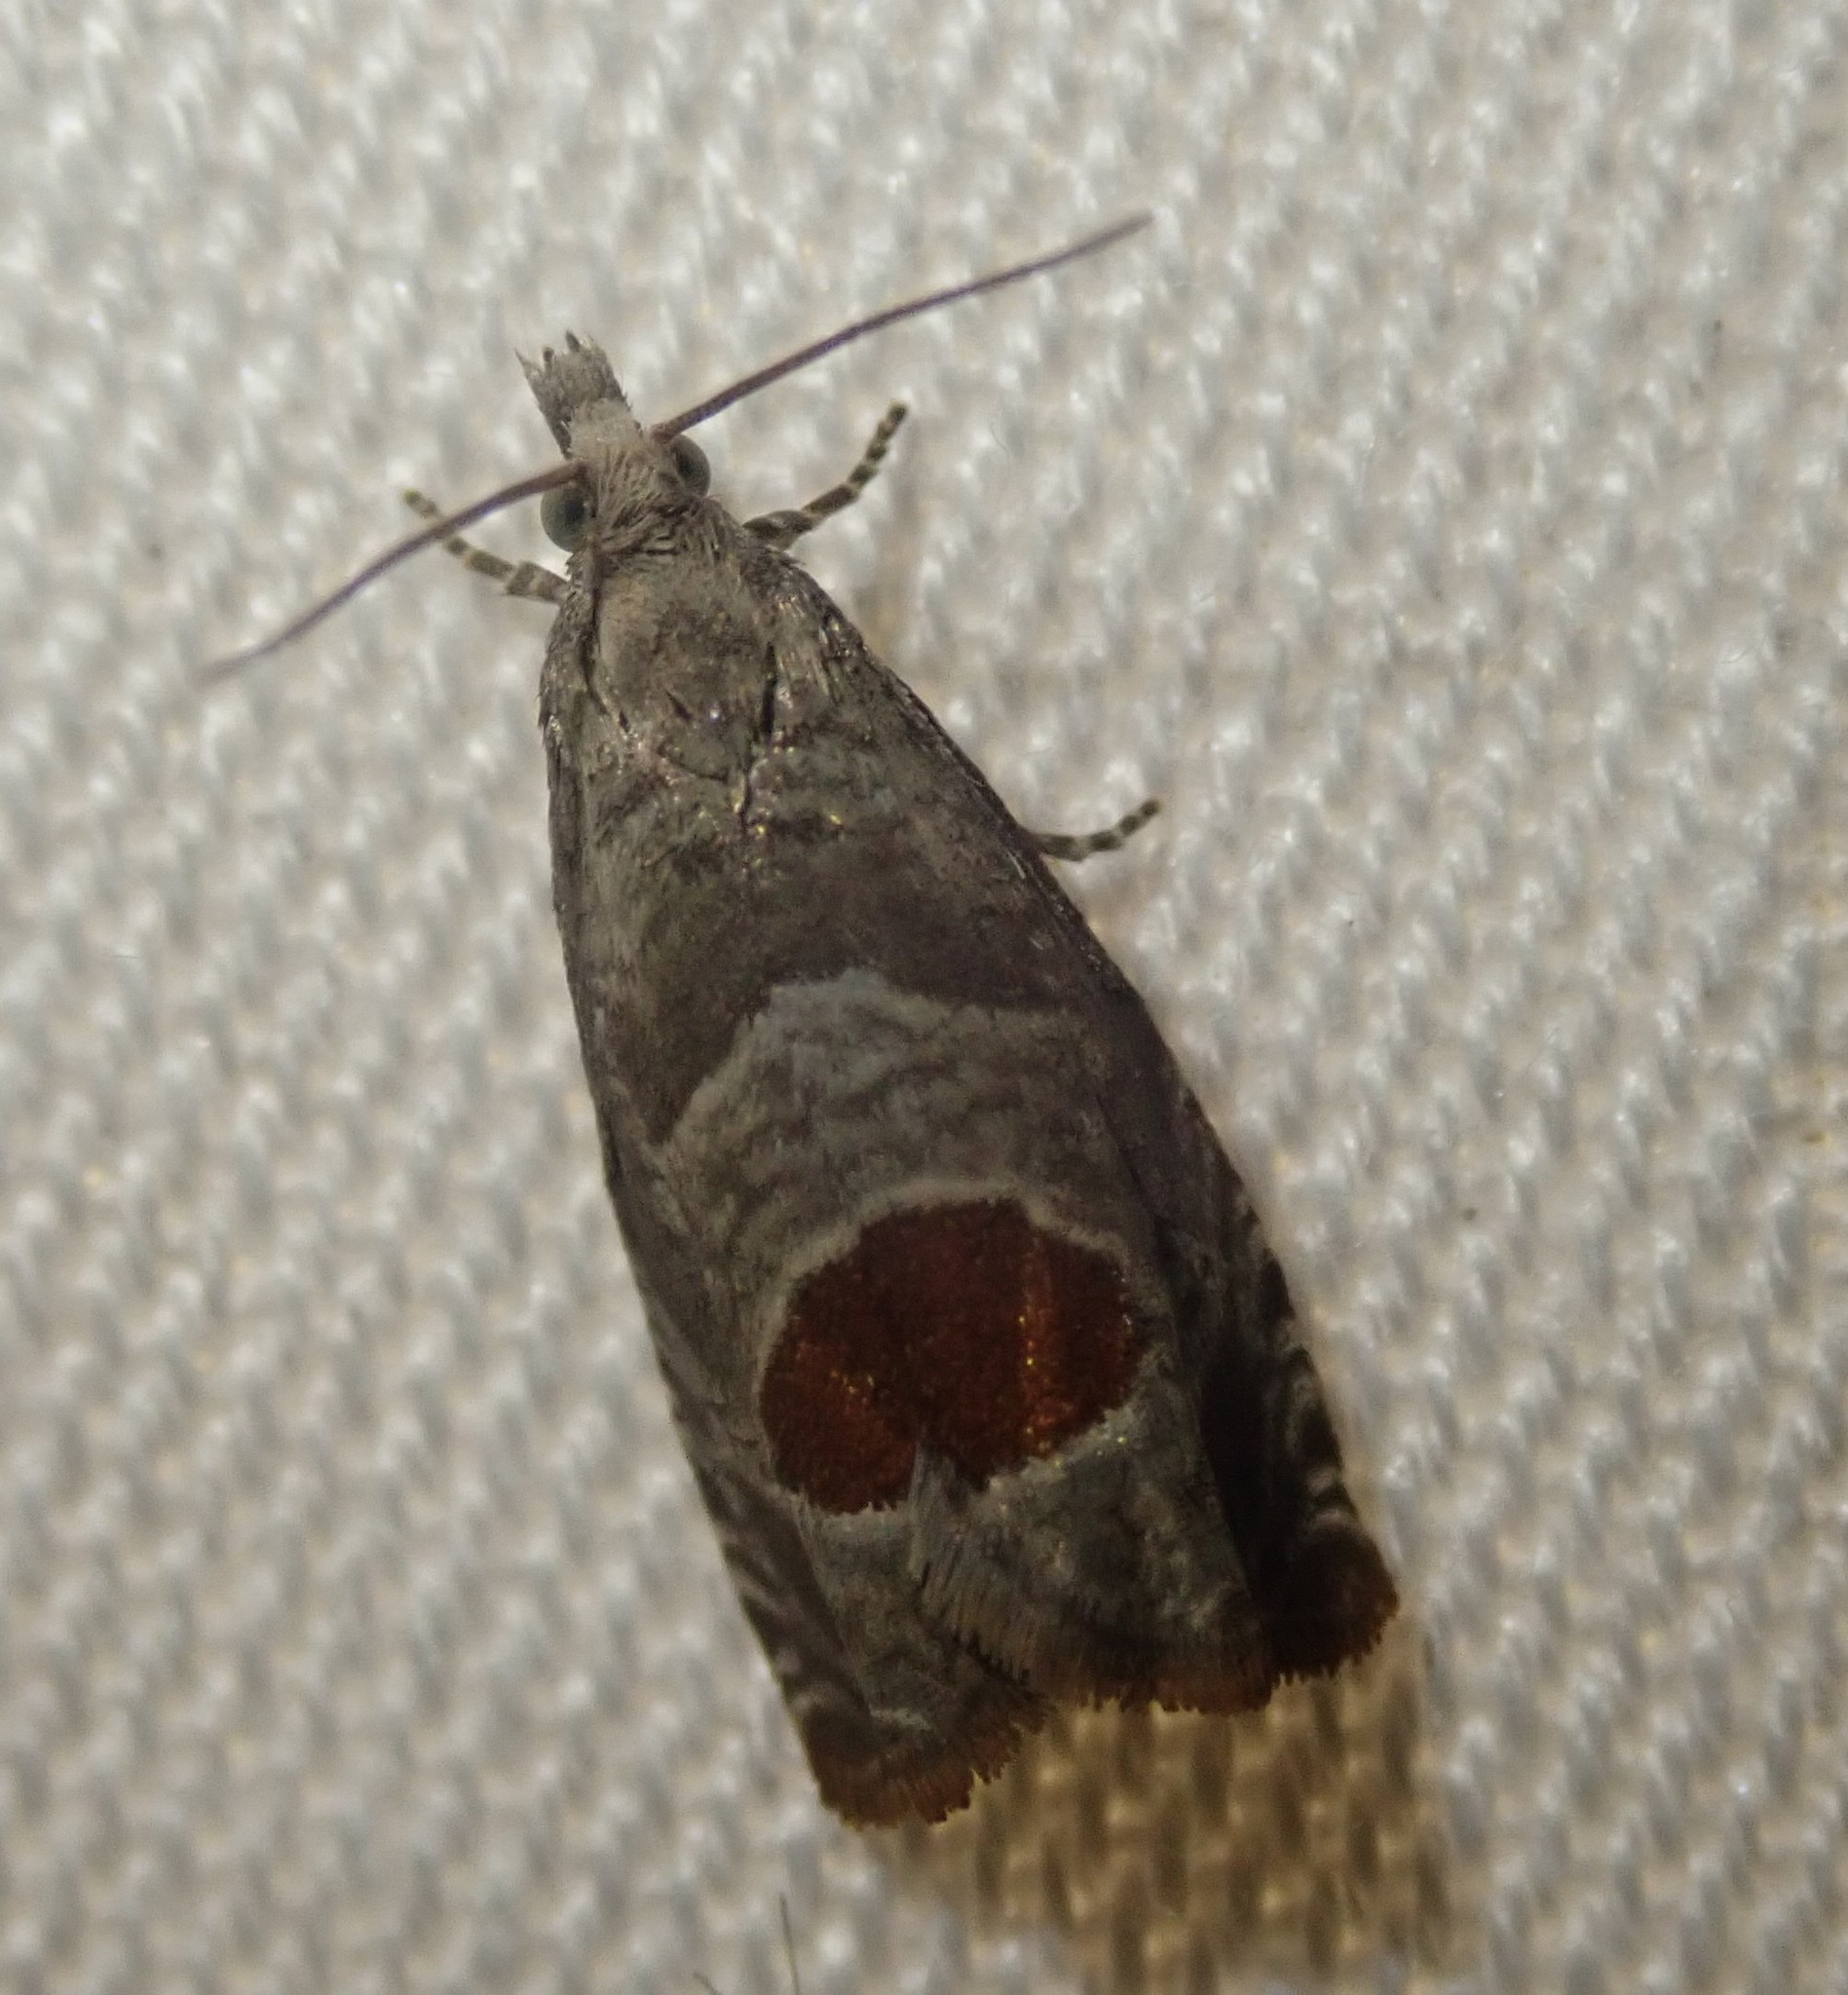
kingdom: Animalia
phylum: Arthropoda
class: Insecta
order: Lepidoptera
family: Tortricidae
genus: Notocelia
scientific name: Notocelia uddmanniana
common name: Bramble shoot moth
